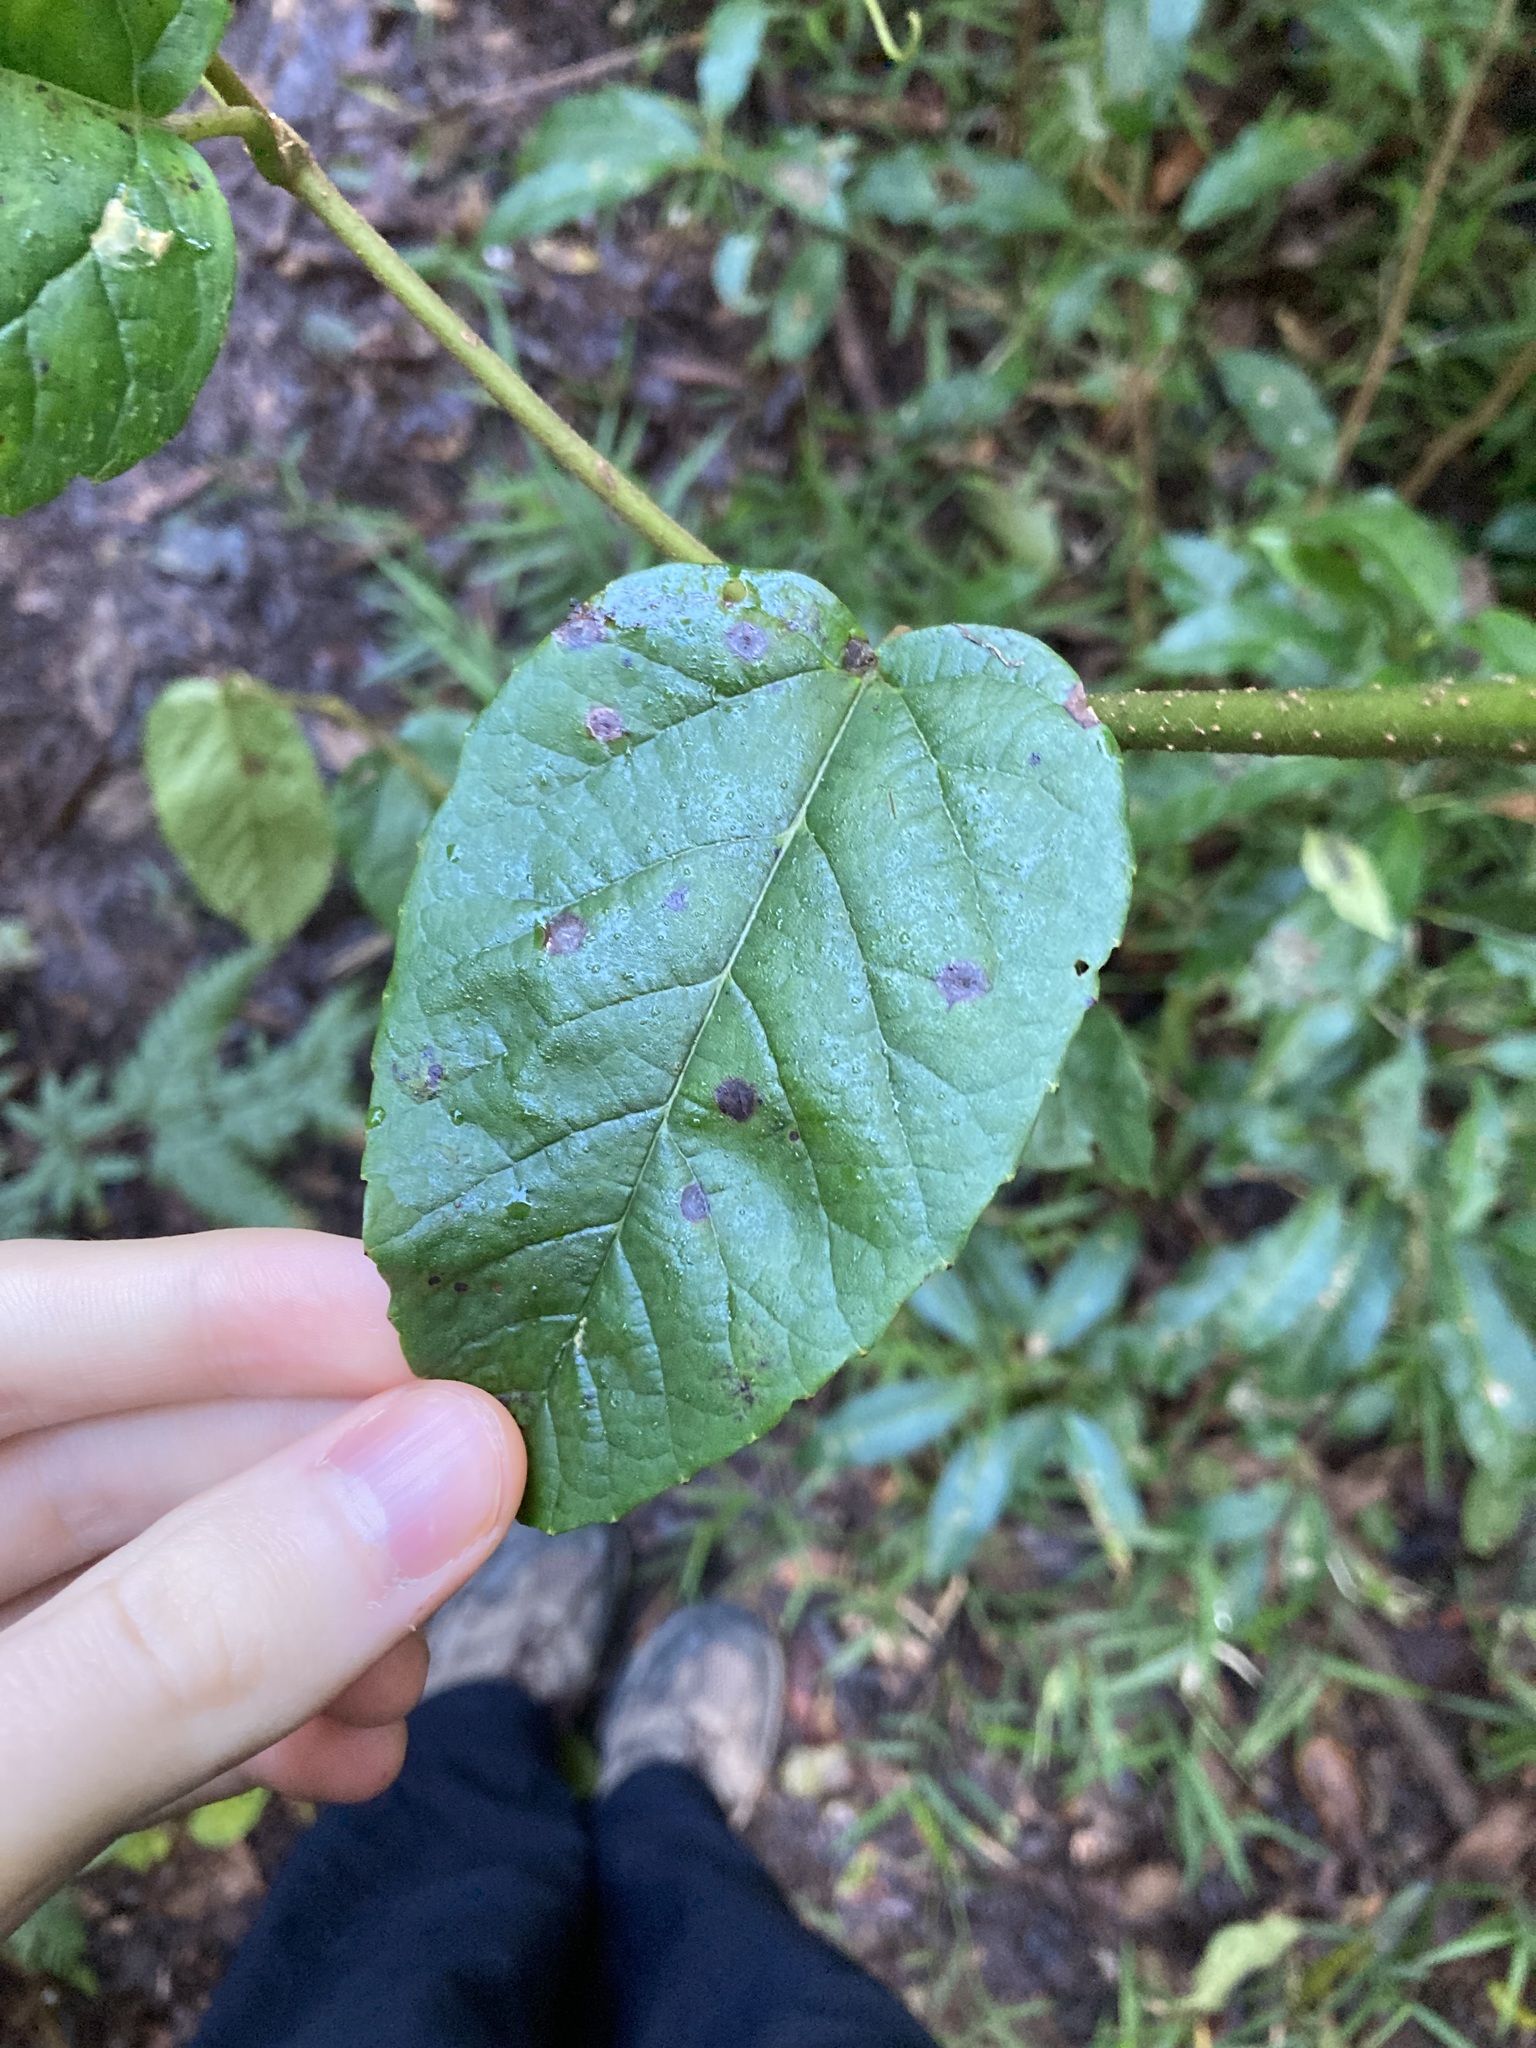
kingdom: Plantae
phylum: Tracheophyta
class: Magnoliopsida
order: Vitales
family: Vitaceae
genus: Cissus
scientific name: Cissus antarctica
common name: Kangaroo vine
